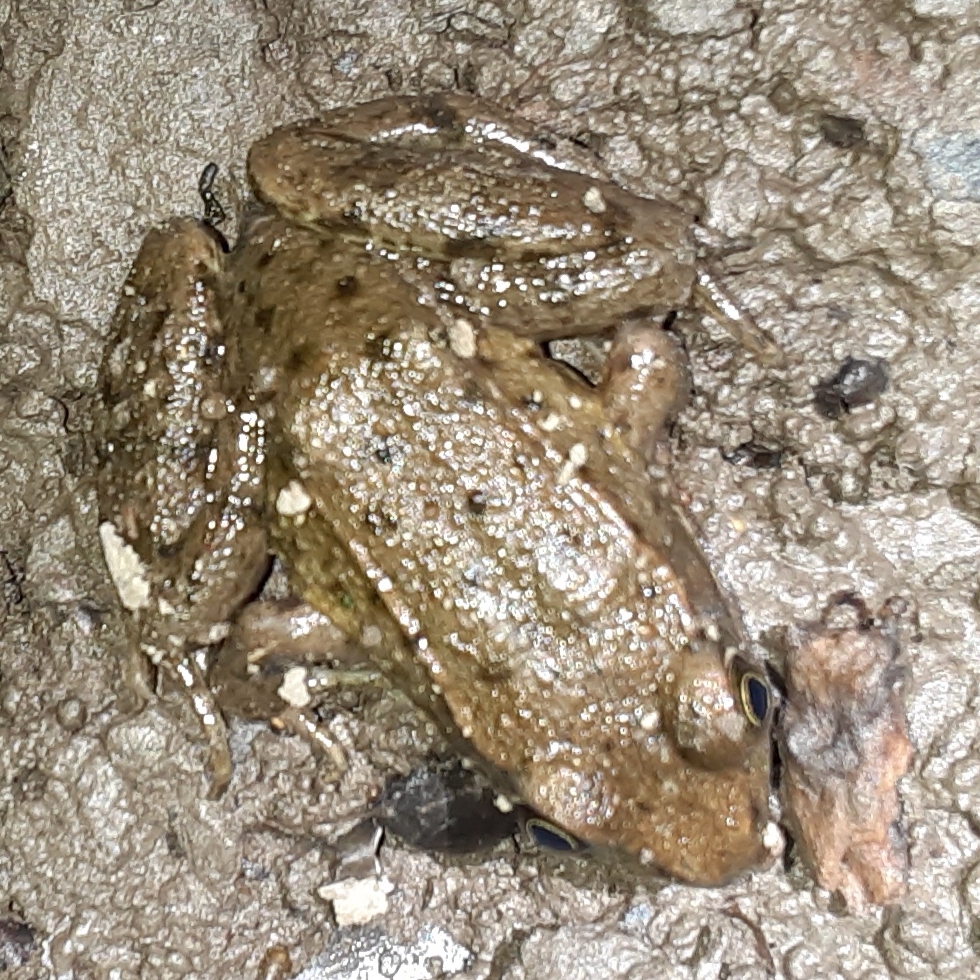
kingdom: Animalia
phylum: Chordata
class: Amphibia
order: Anura
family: Ranidae
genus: Lithobates
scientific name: Lithobates clamitans
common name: Green frog
